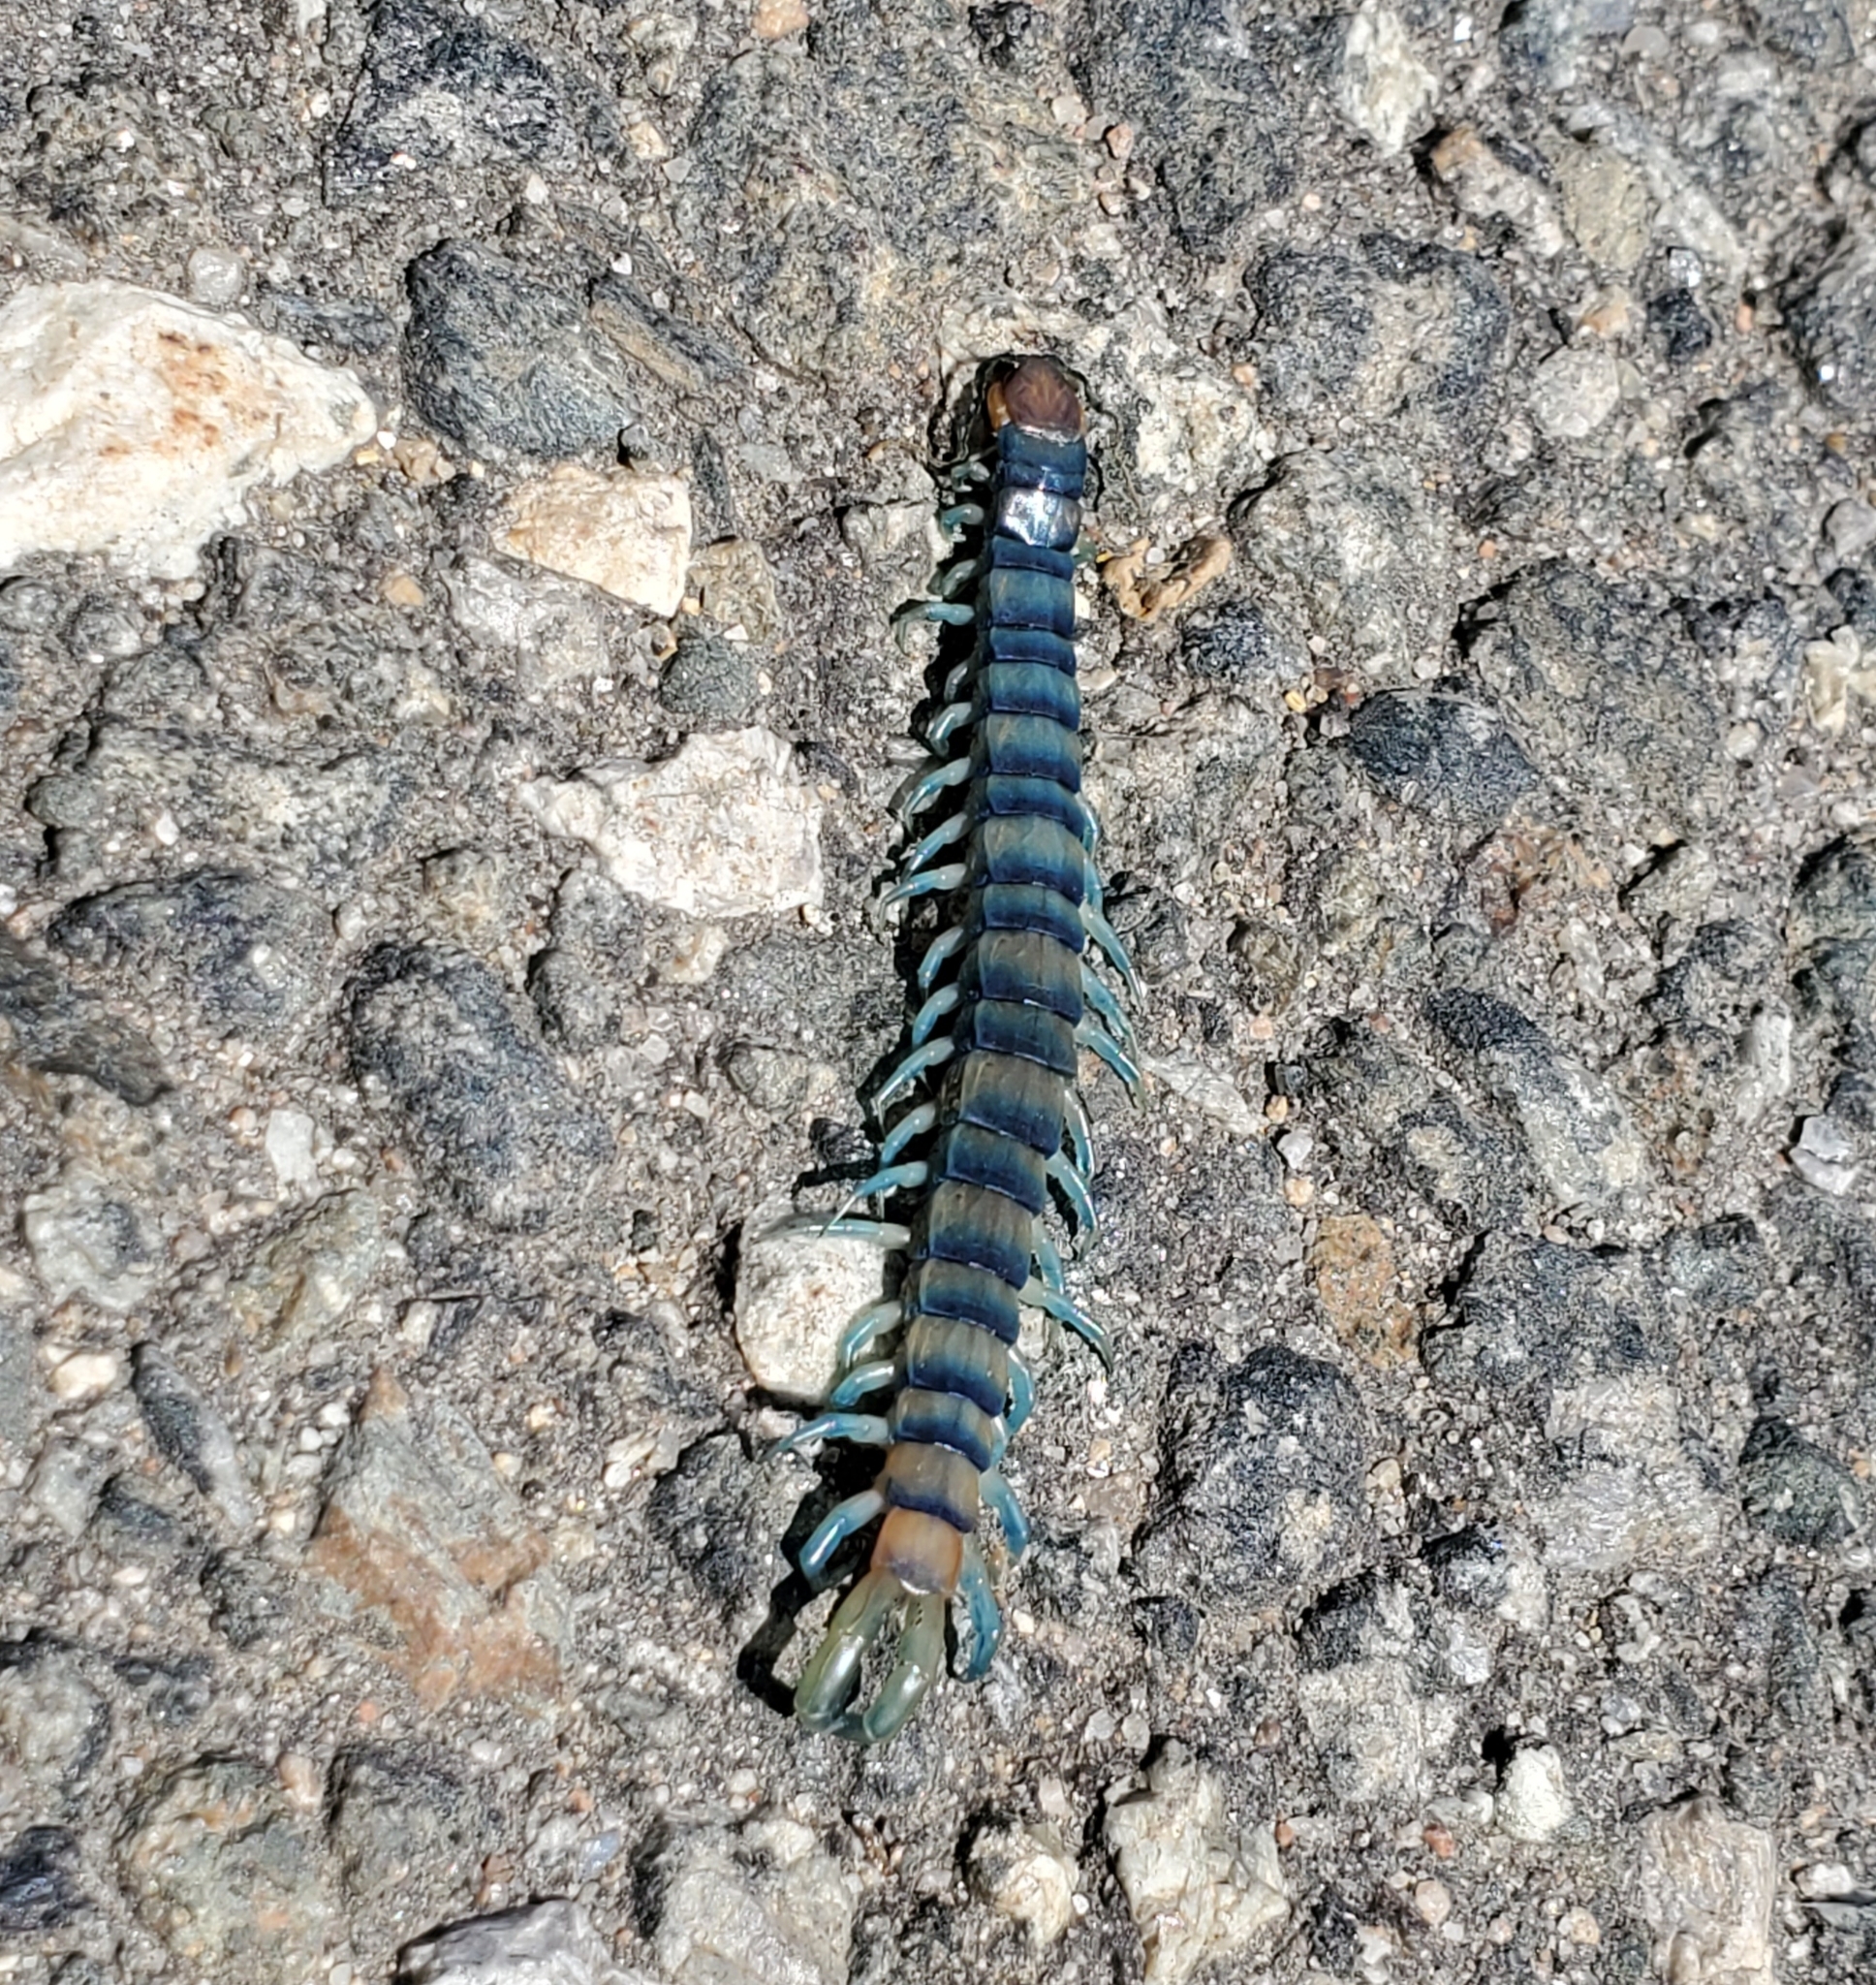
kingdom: Animalia
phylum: Arthropoda
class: Chilopoda
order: Scolopendromorpha
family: Scolopendridae
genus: Scolopendra
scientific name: Scolopendra polymorpha
